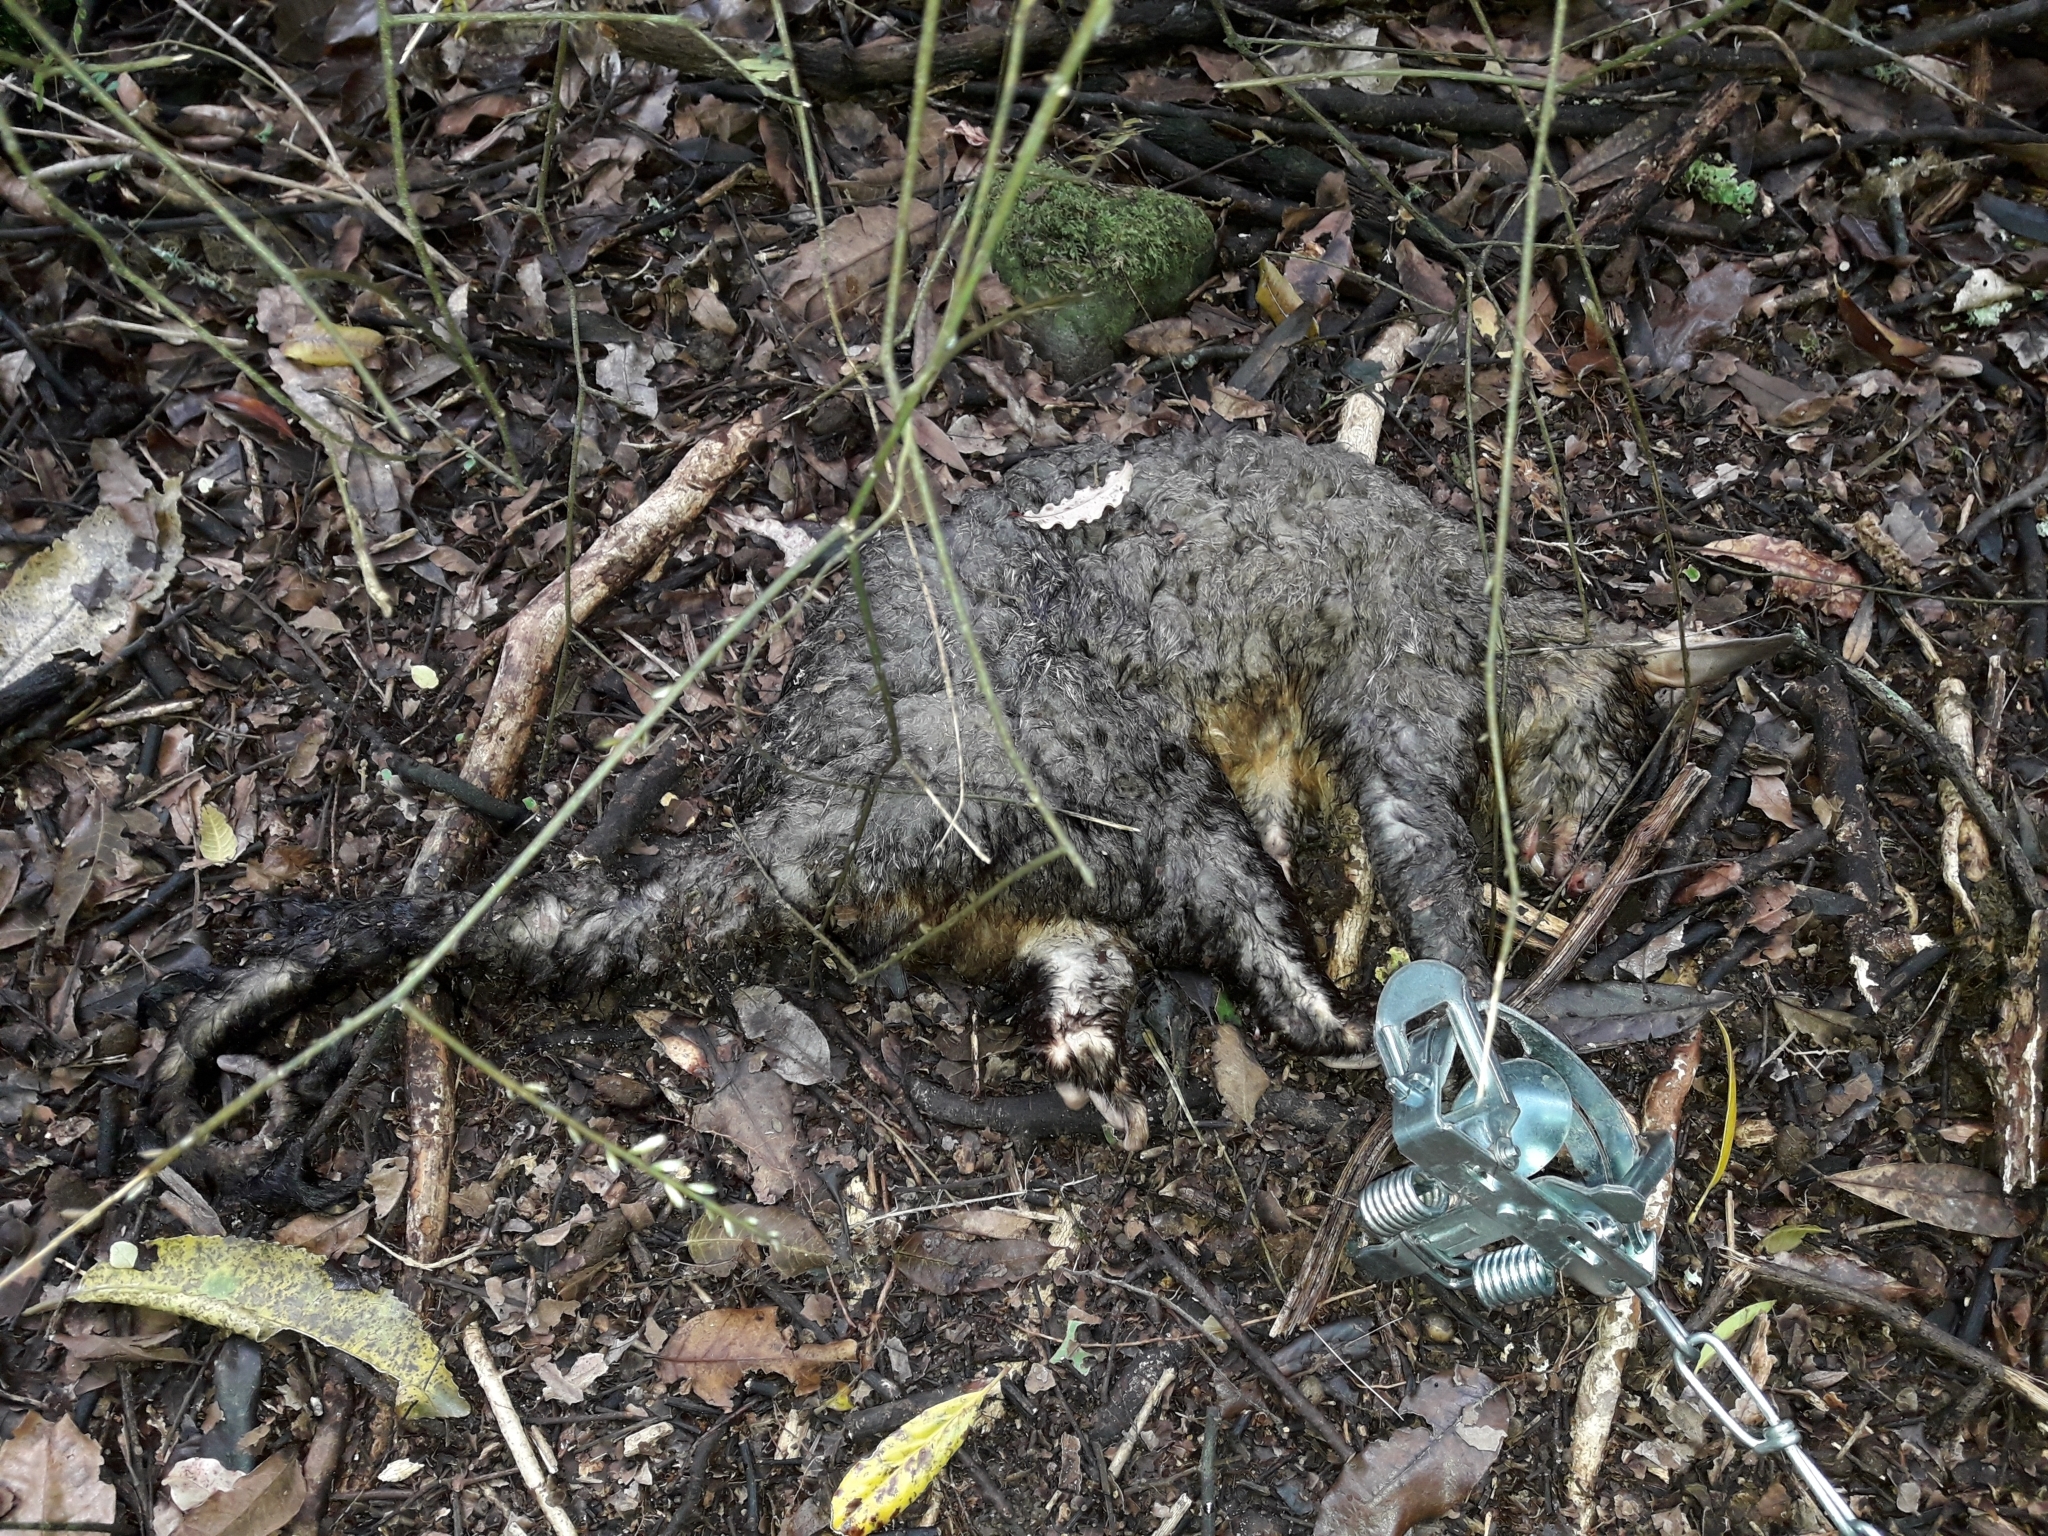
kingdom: Animalia
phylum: Chordata
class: Mammalia
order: Diprotodontia
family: Phalangeridae
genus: Trichosurus
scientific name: Trichosurus vulpecula
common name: Common brushtail
